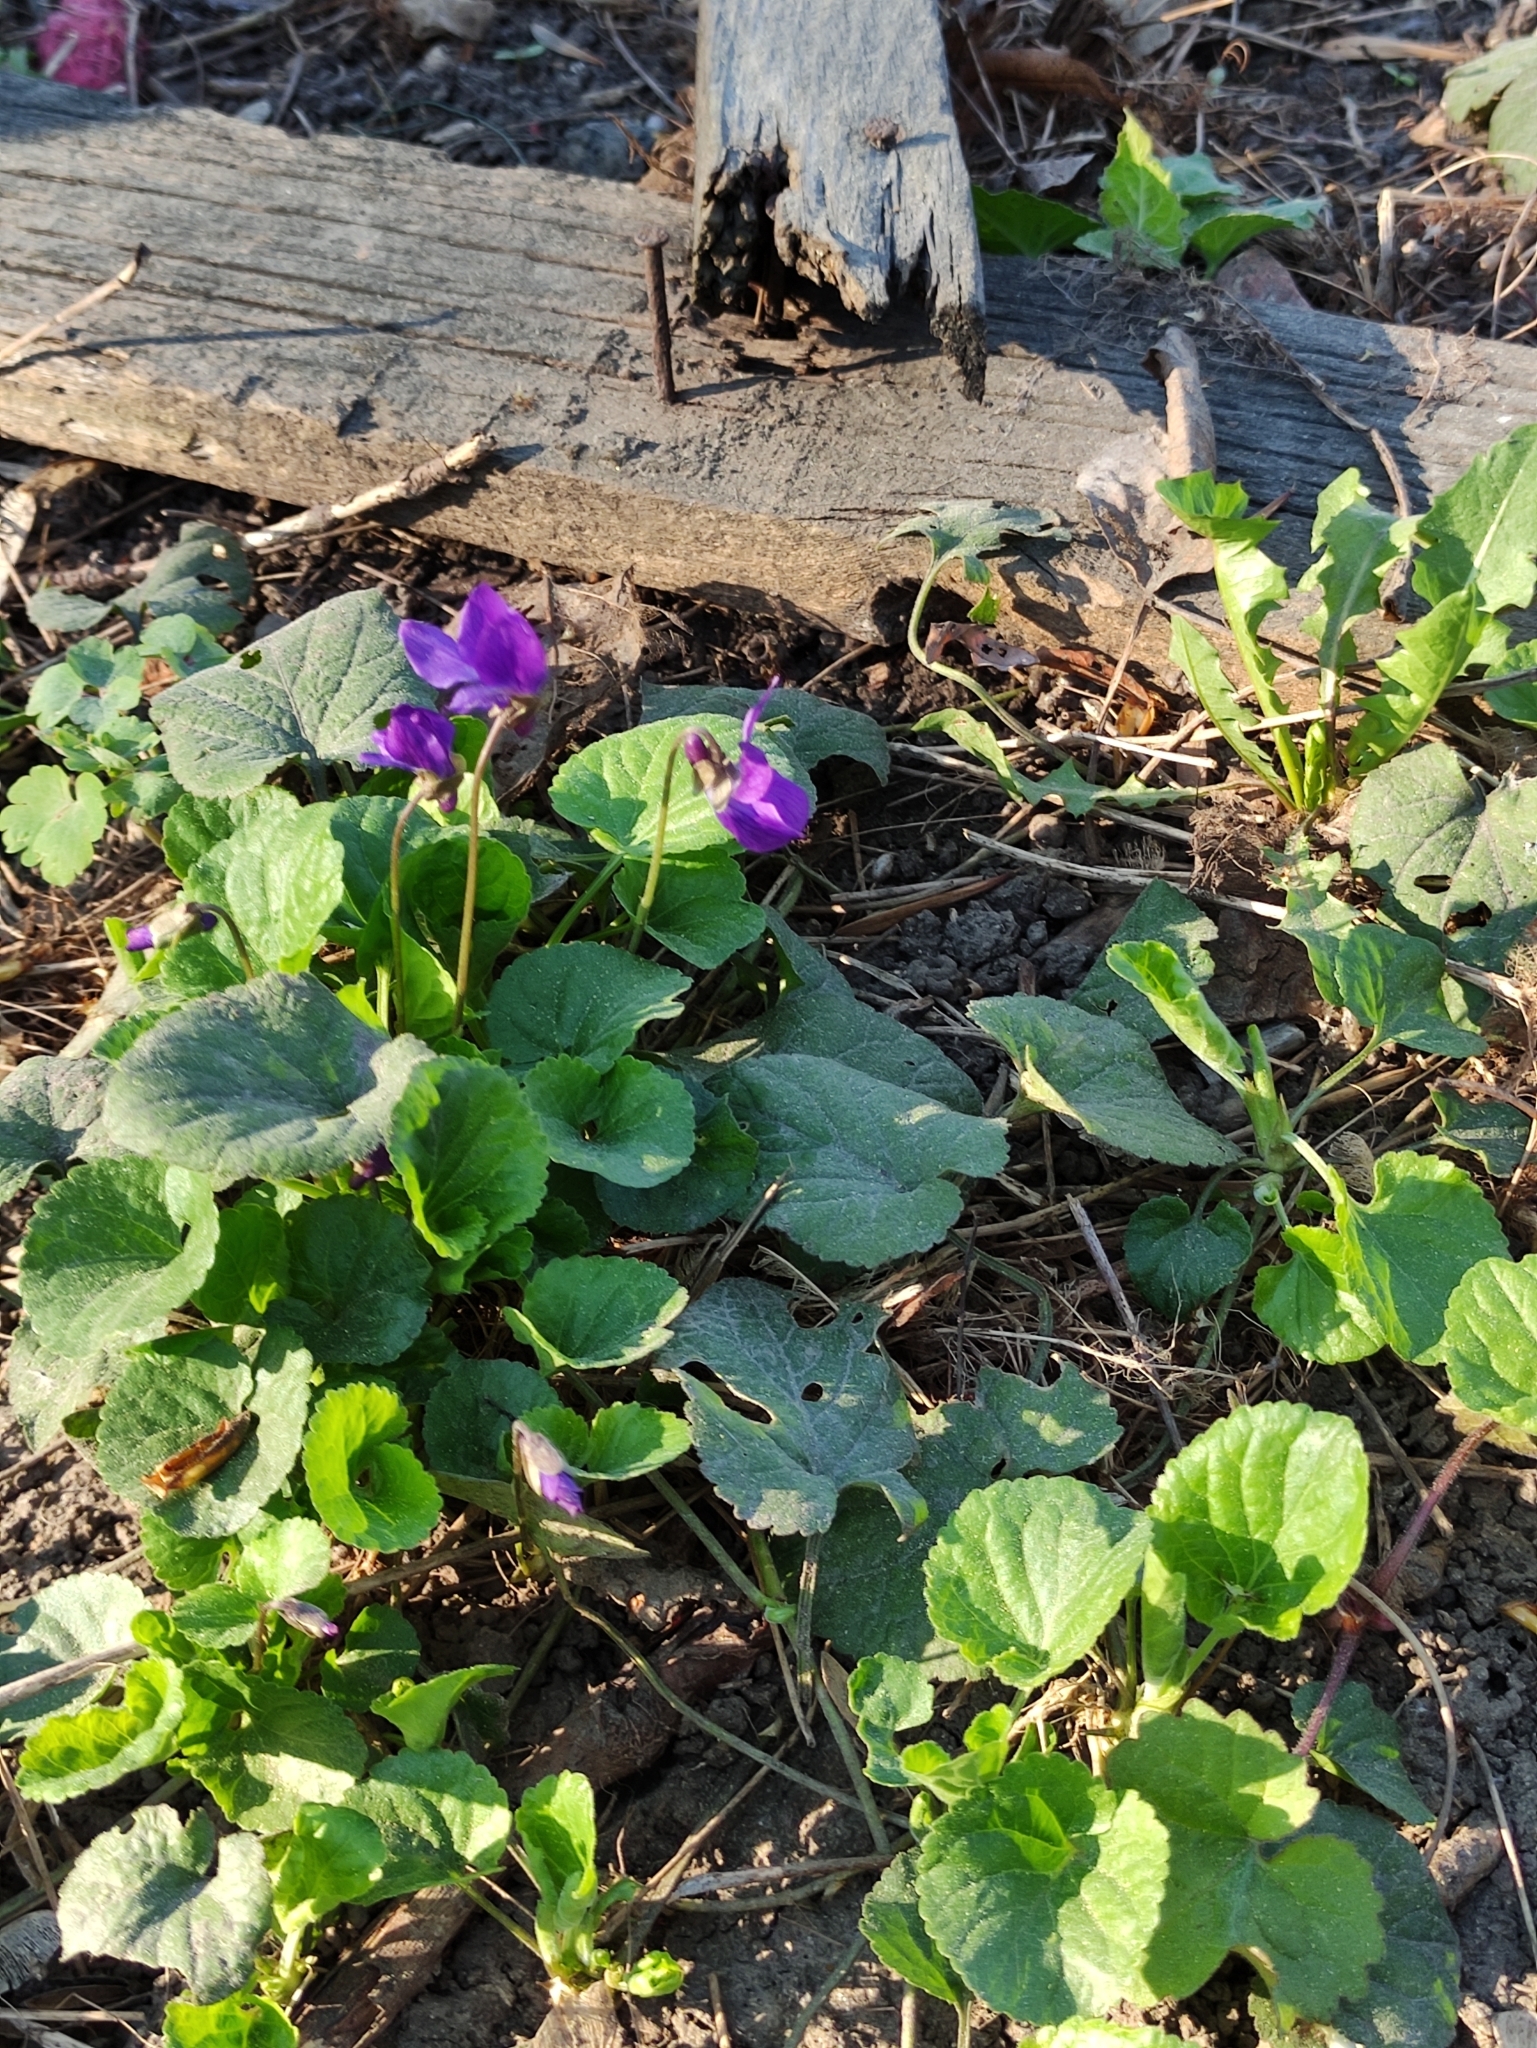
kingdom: Plantae
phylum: Tracheophyta
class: Magnoliopsida
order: Malpighiales
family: Violaceae
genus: Viola
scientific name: Viola odorata
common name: Sweet violet
